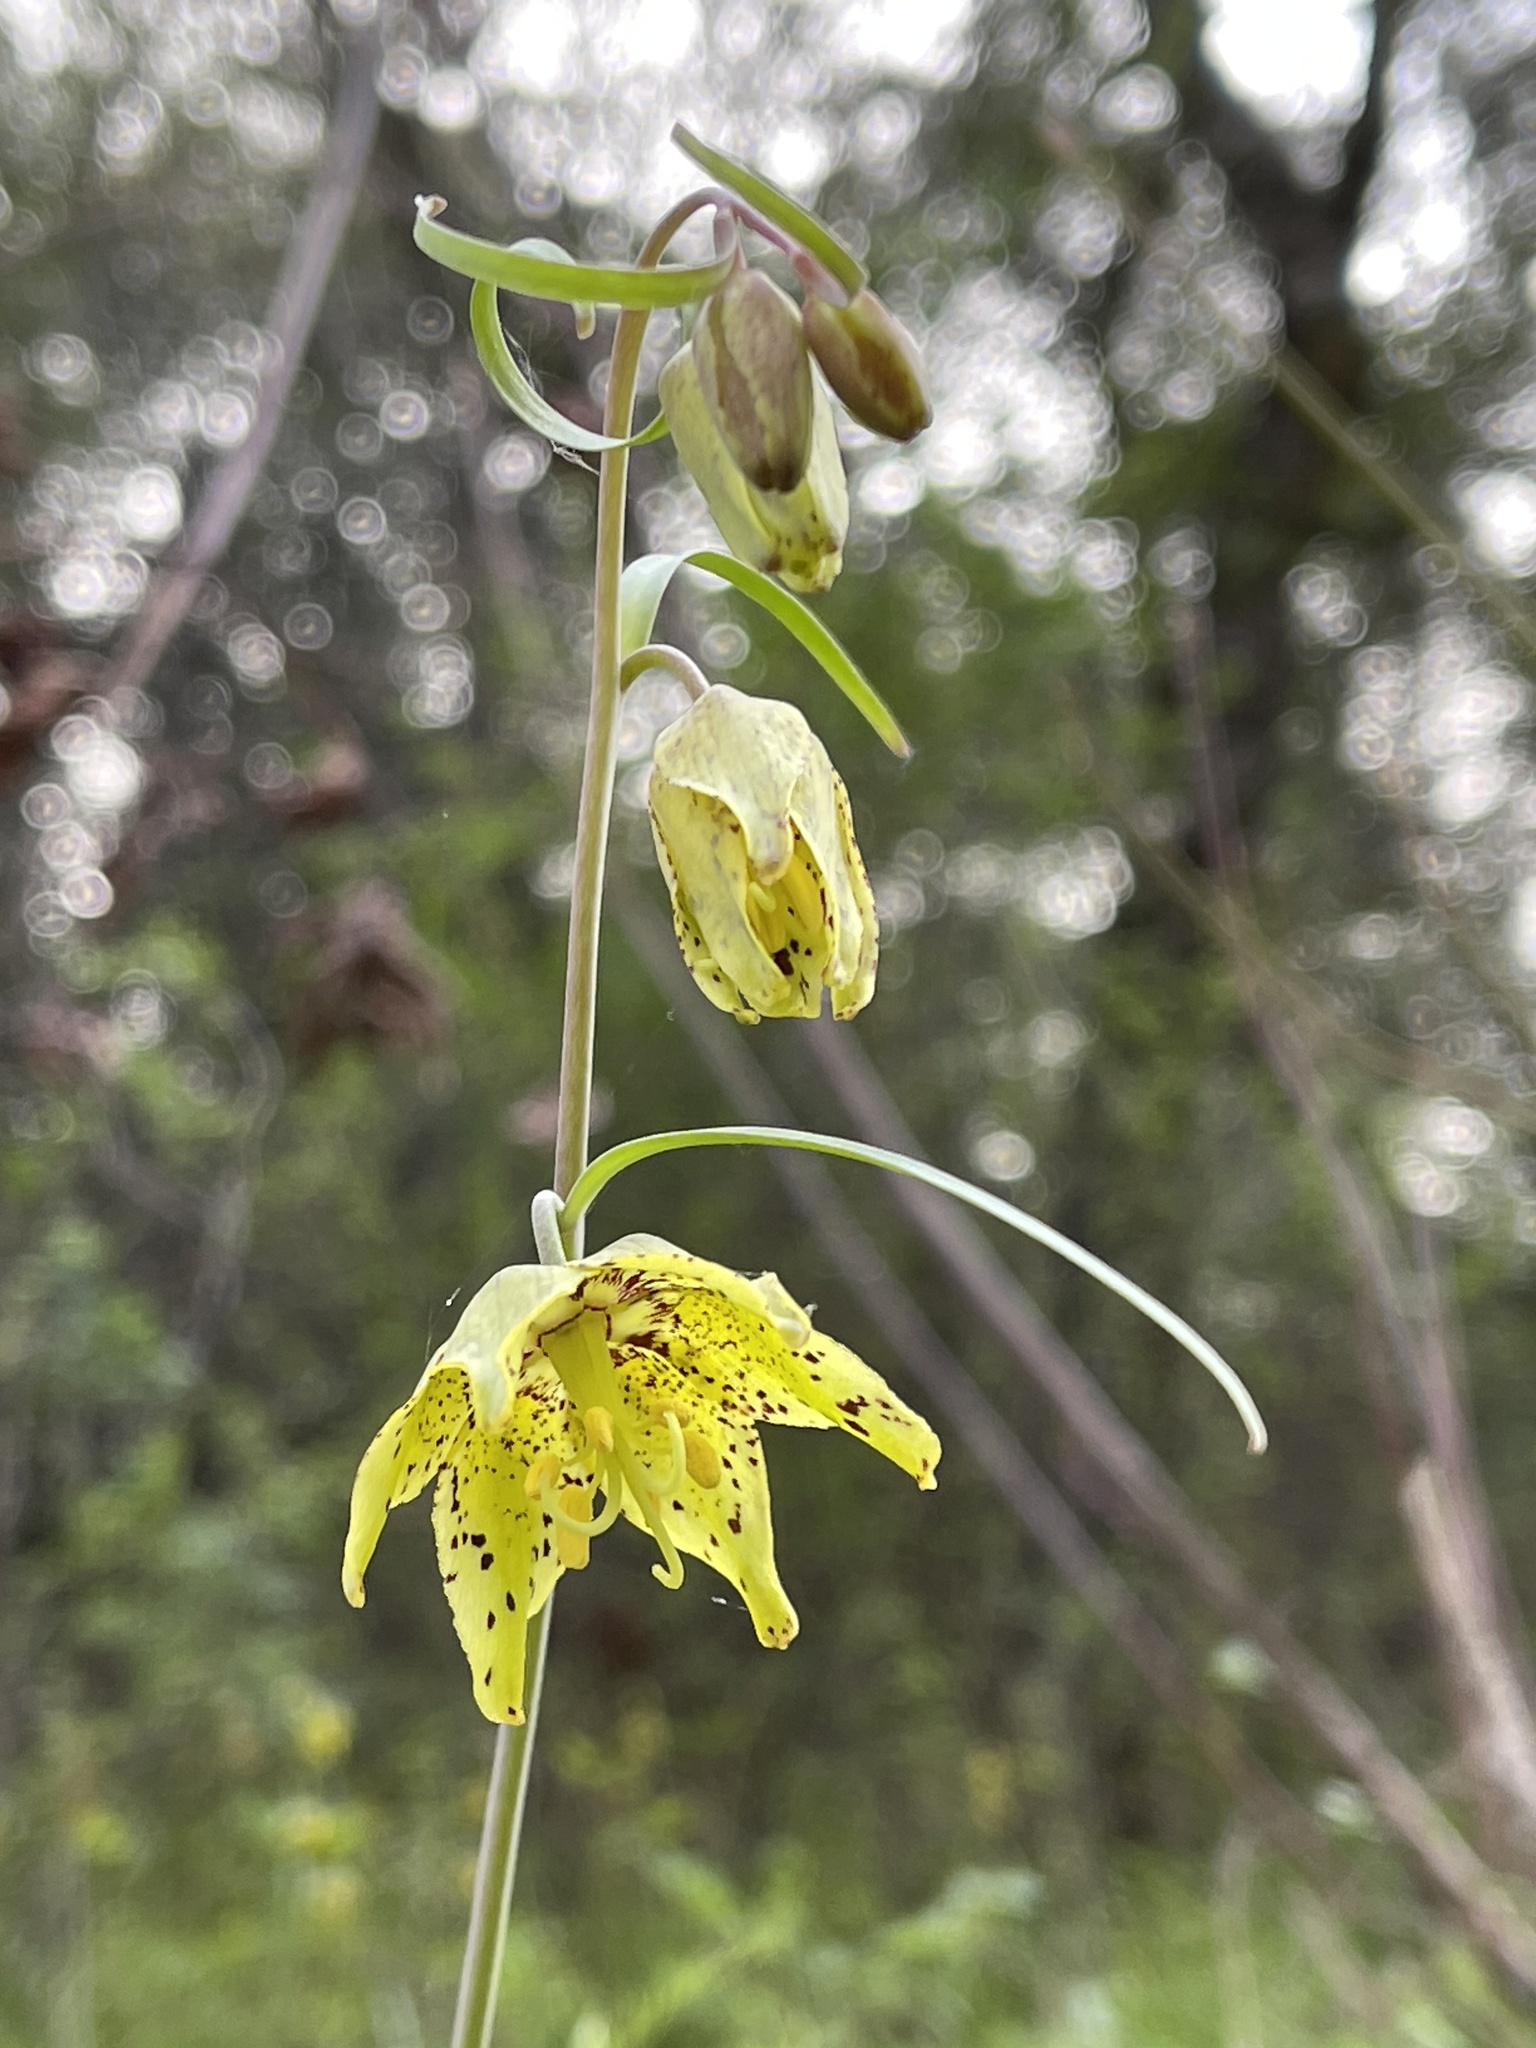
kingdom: Plantae
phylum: Tracheophyta
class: Liliopsida
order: Liliales
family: Liliaceae
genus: Fritillaria
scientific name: Fritillaria ojaiensis
